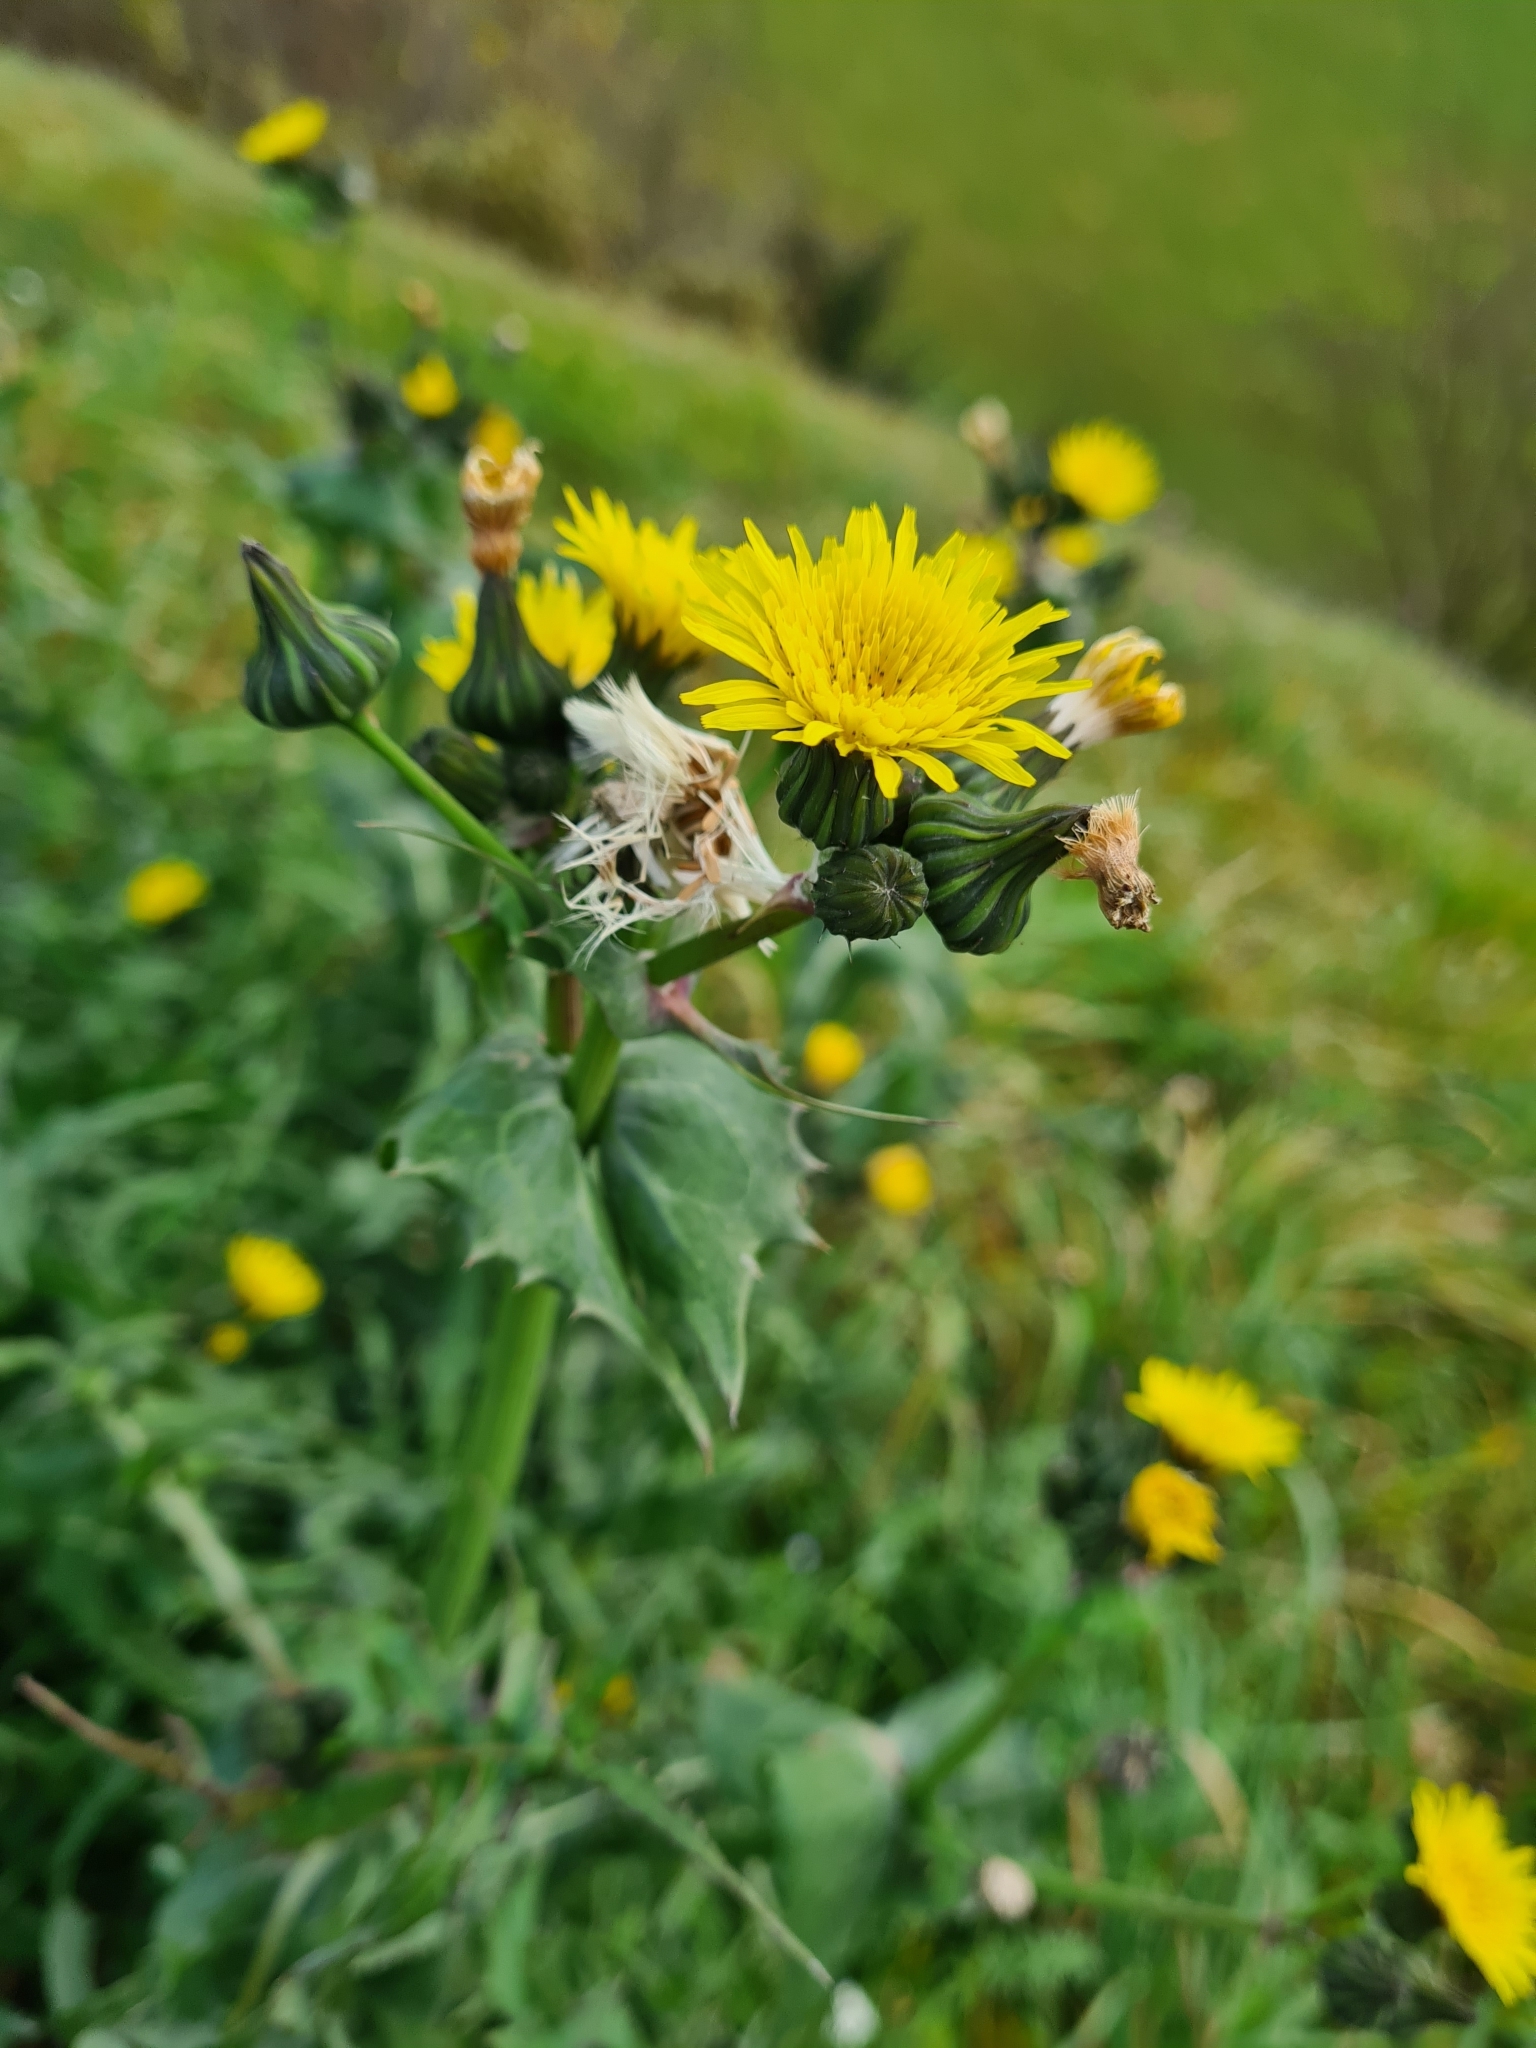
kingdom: Plantae
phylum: Tracheophyta
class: Magnoliopsida
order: Asterales
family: Asteraceae
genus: Sonchus
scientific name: Sonchus oleraceus
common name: Common sowthistle
